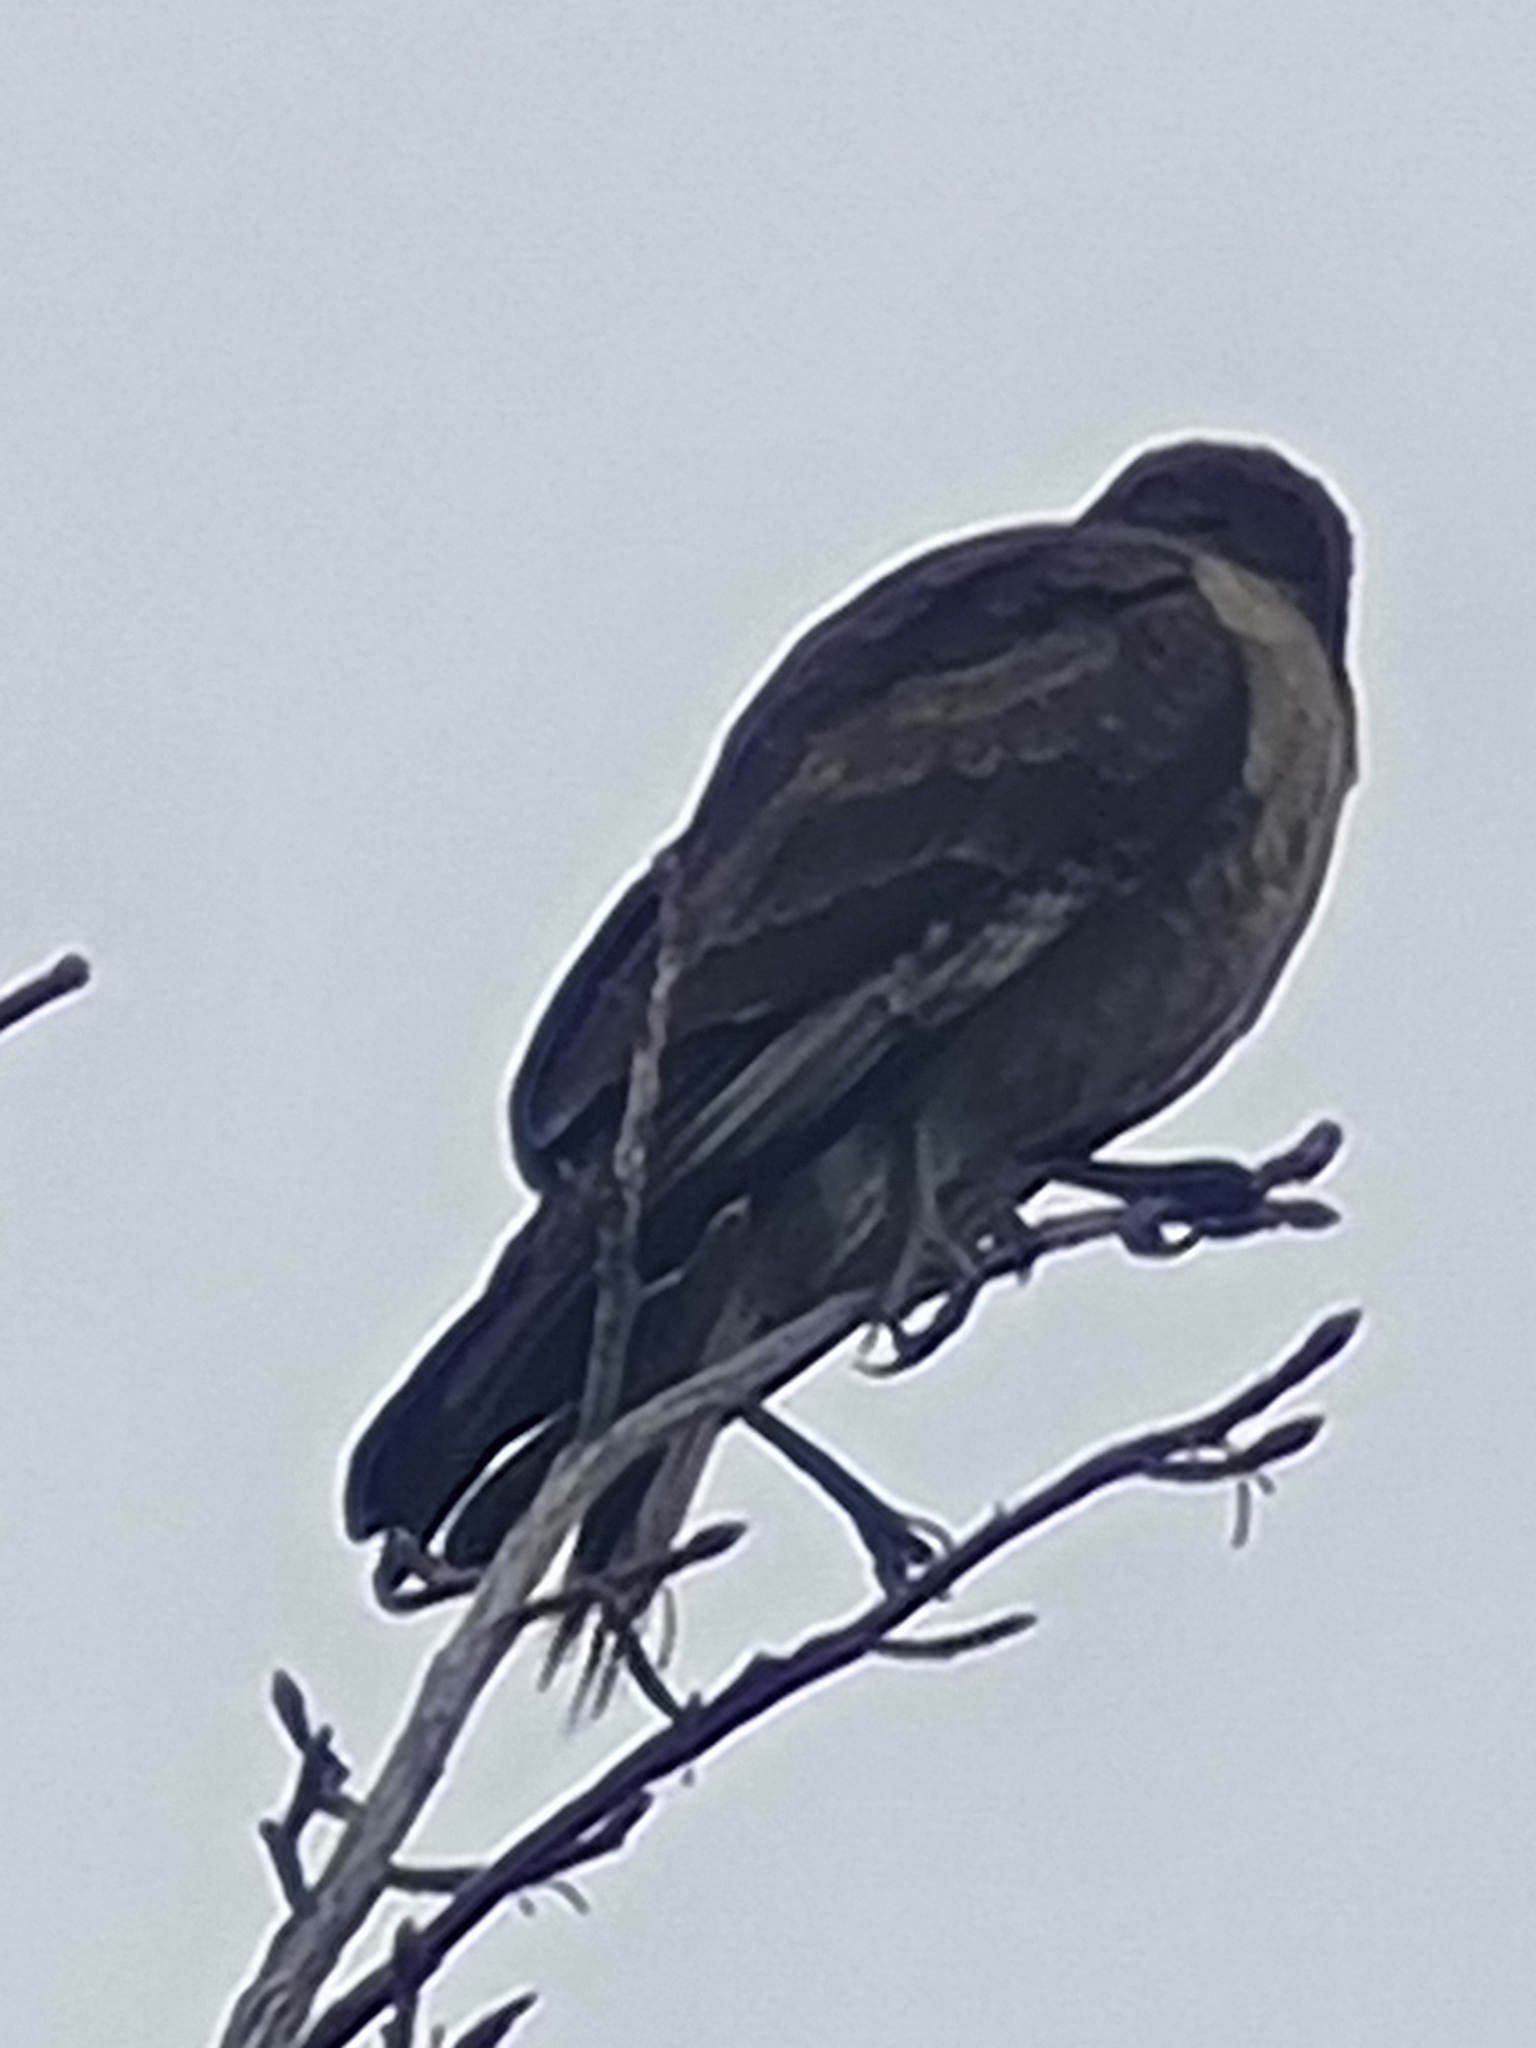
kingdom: Animalia
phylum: Chordata
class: Aves
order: Falconiformes
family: Falconidae
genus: Daptrius
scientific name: Daptrius
